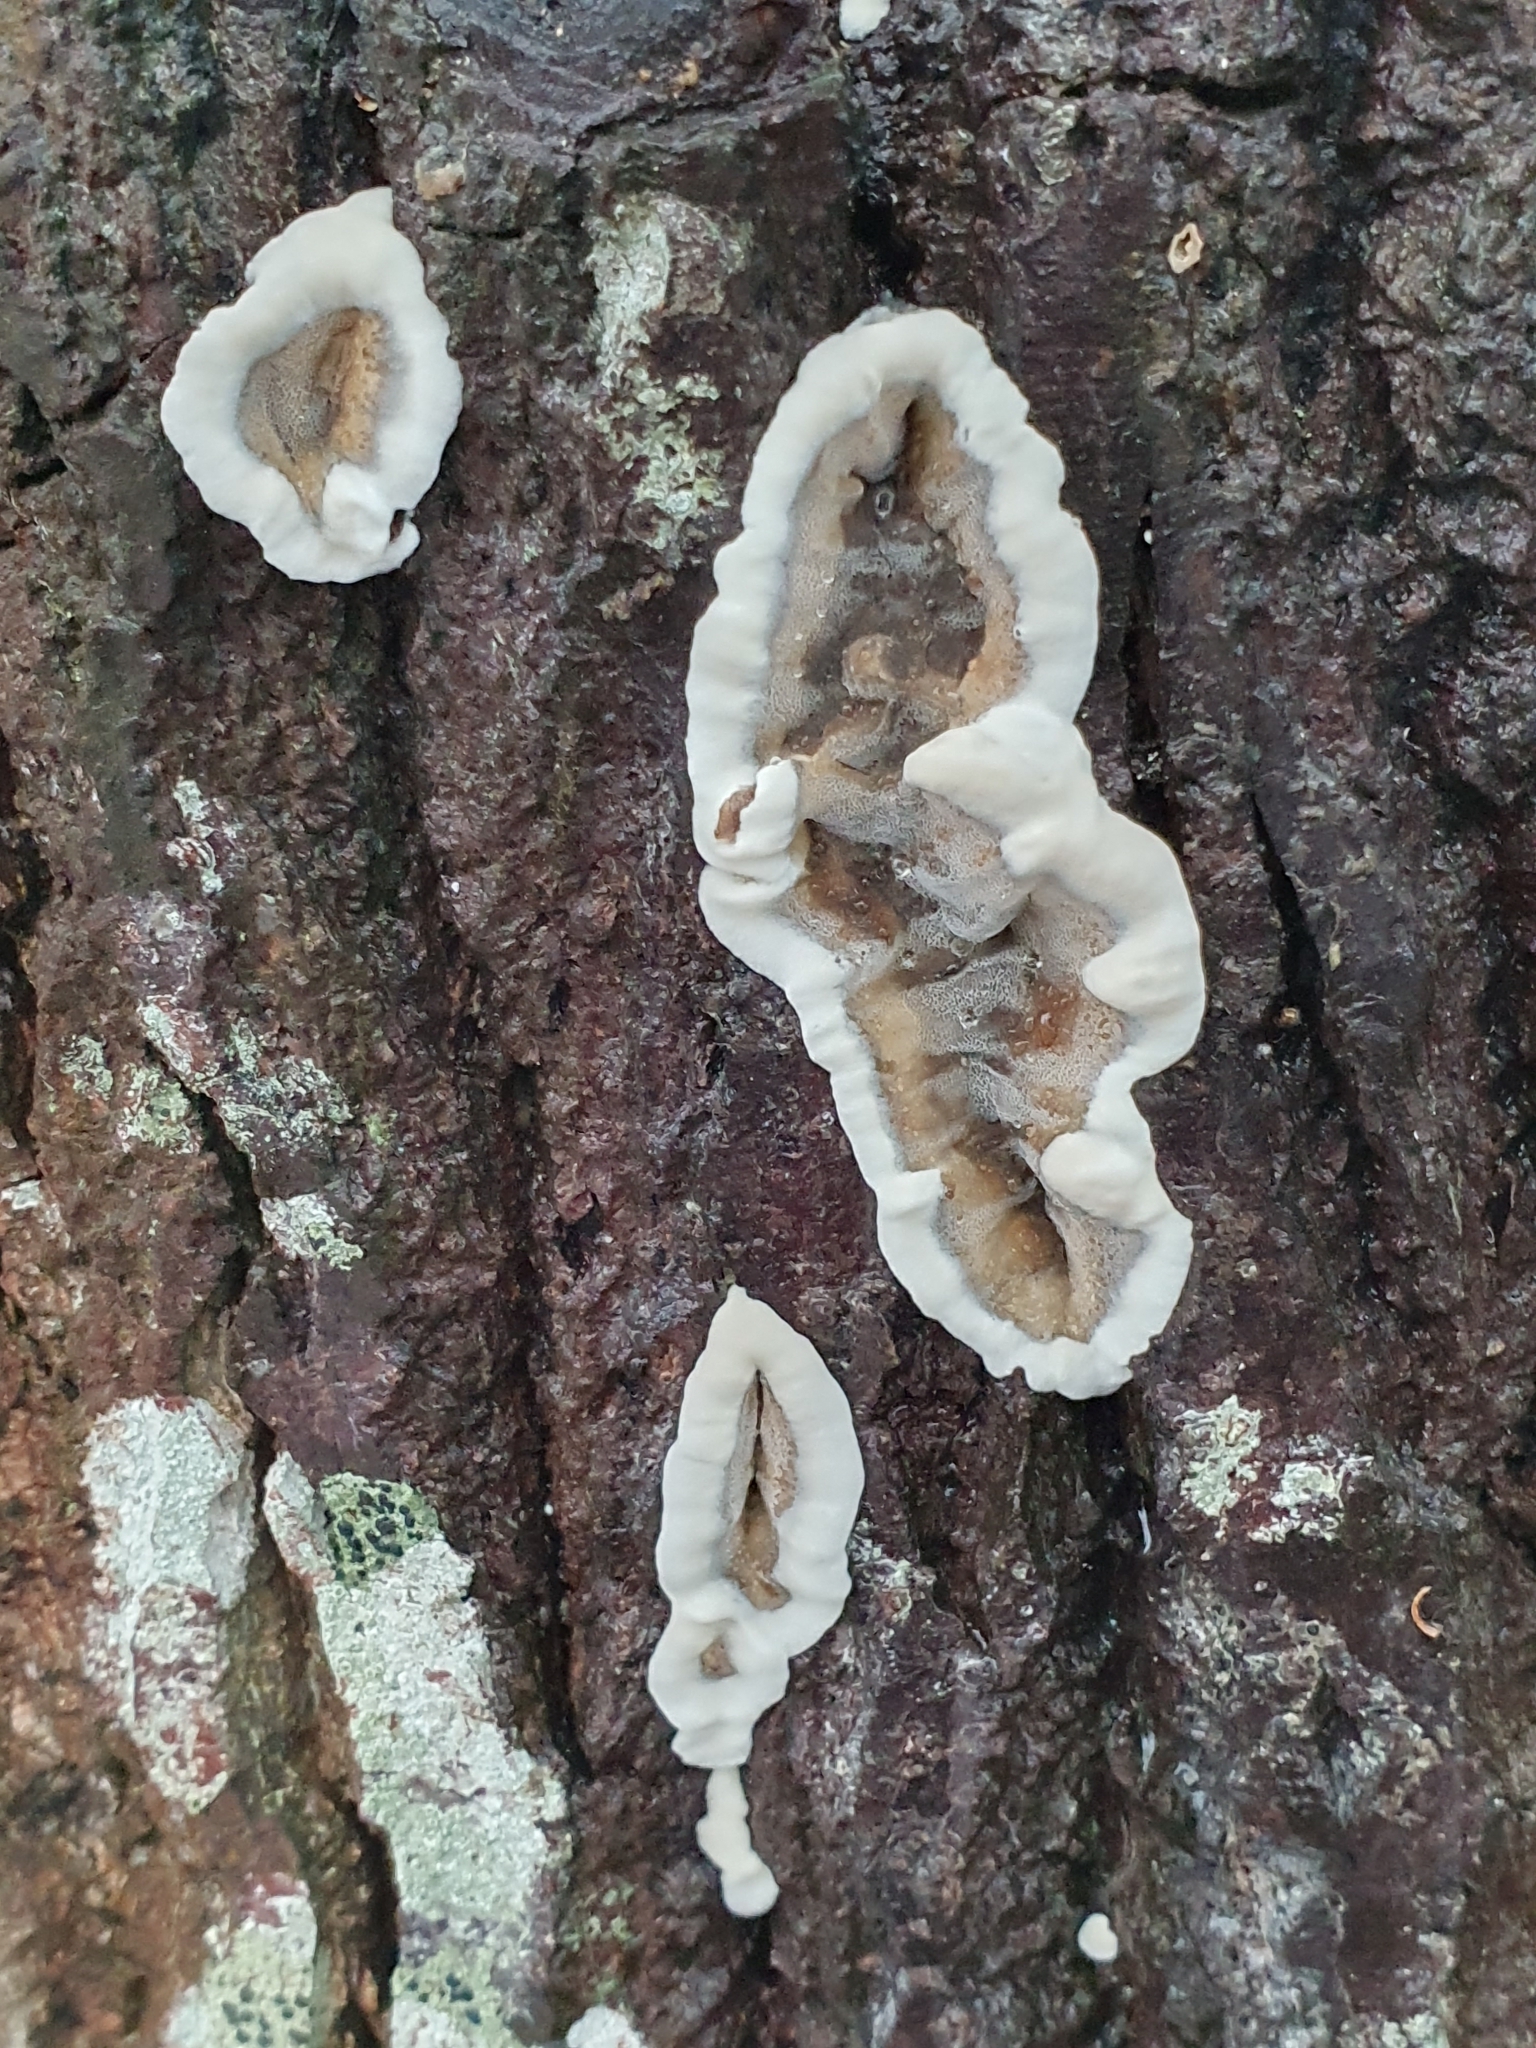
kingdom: Fungi
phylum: Basidiomycota
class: Agaricomycetes
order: Polyporales
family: Phanerochaetaceae
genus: Bjerkandera
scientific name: Bjerkandera adusta
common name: Smoky bracket
